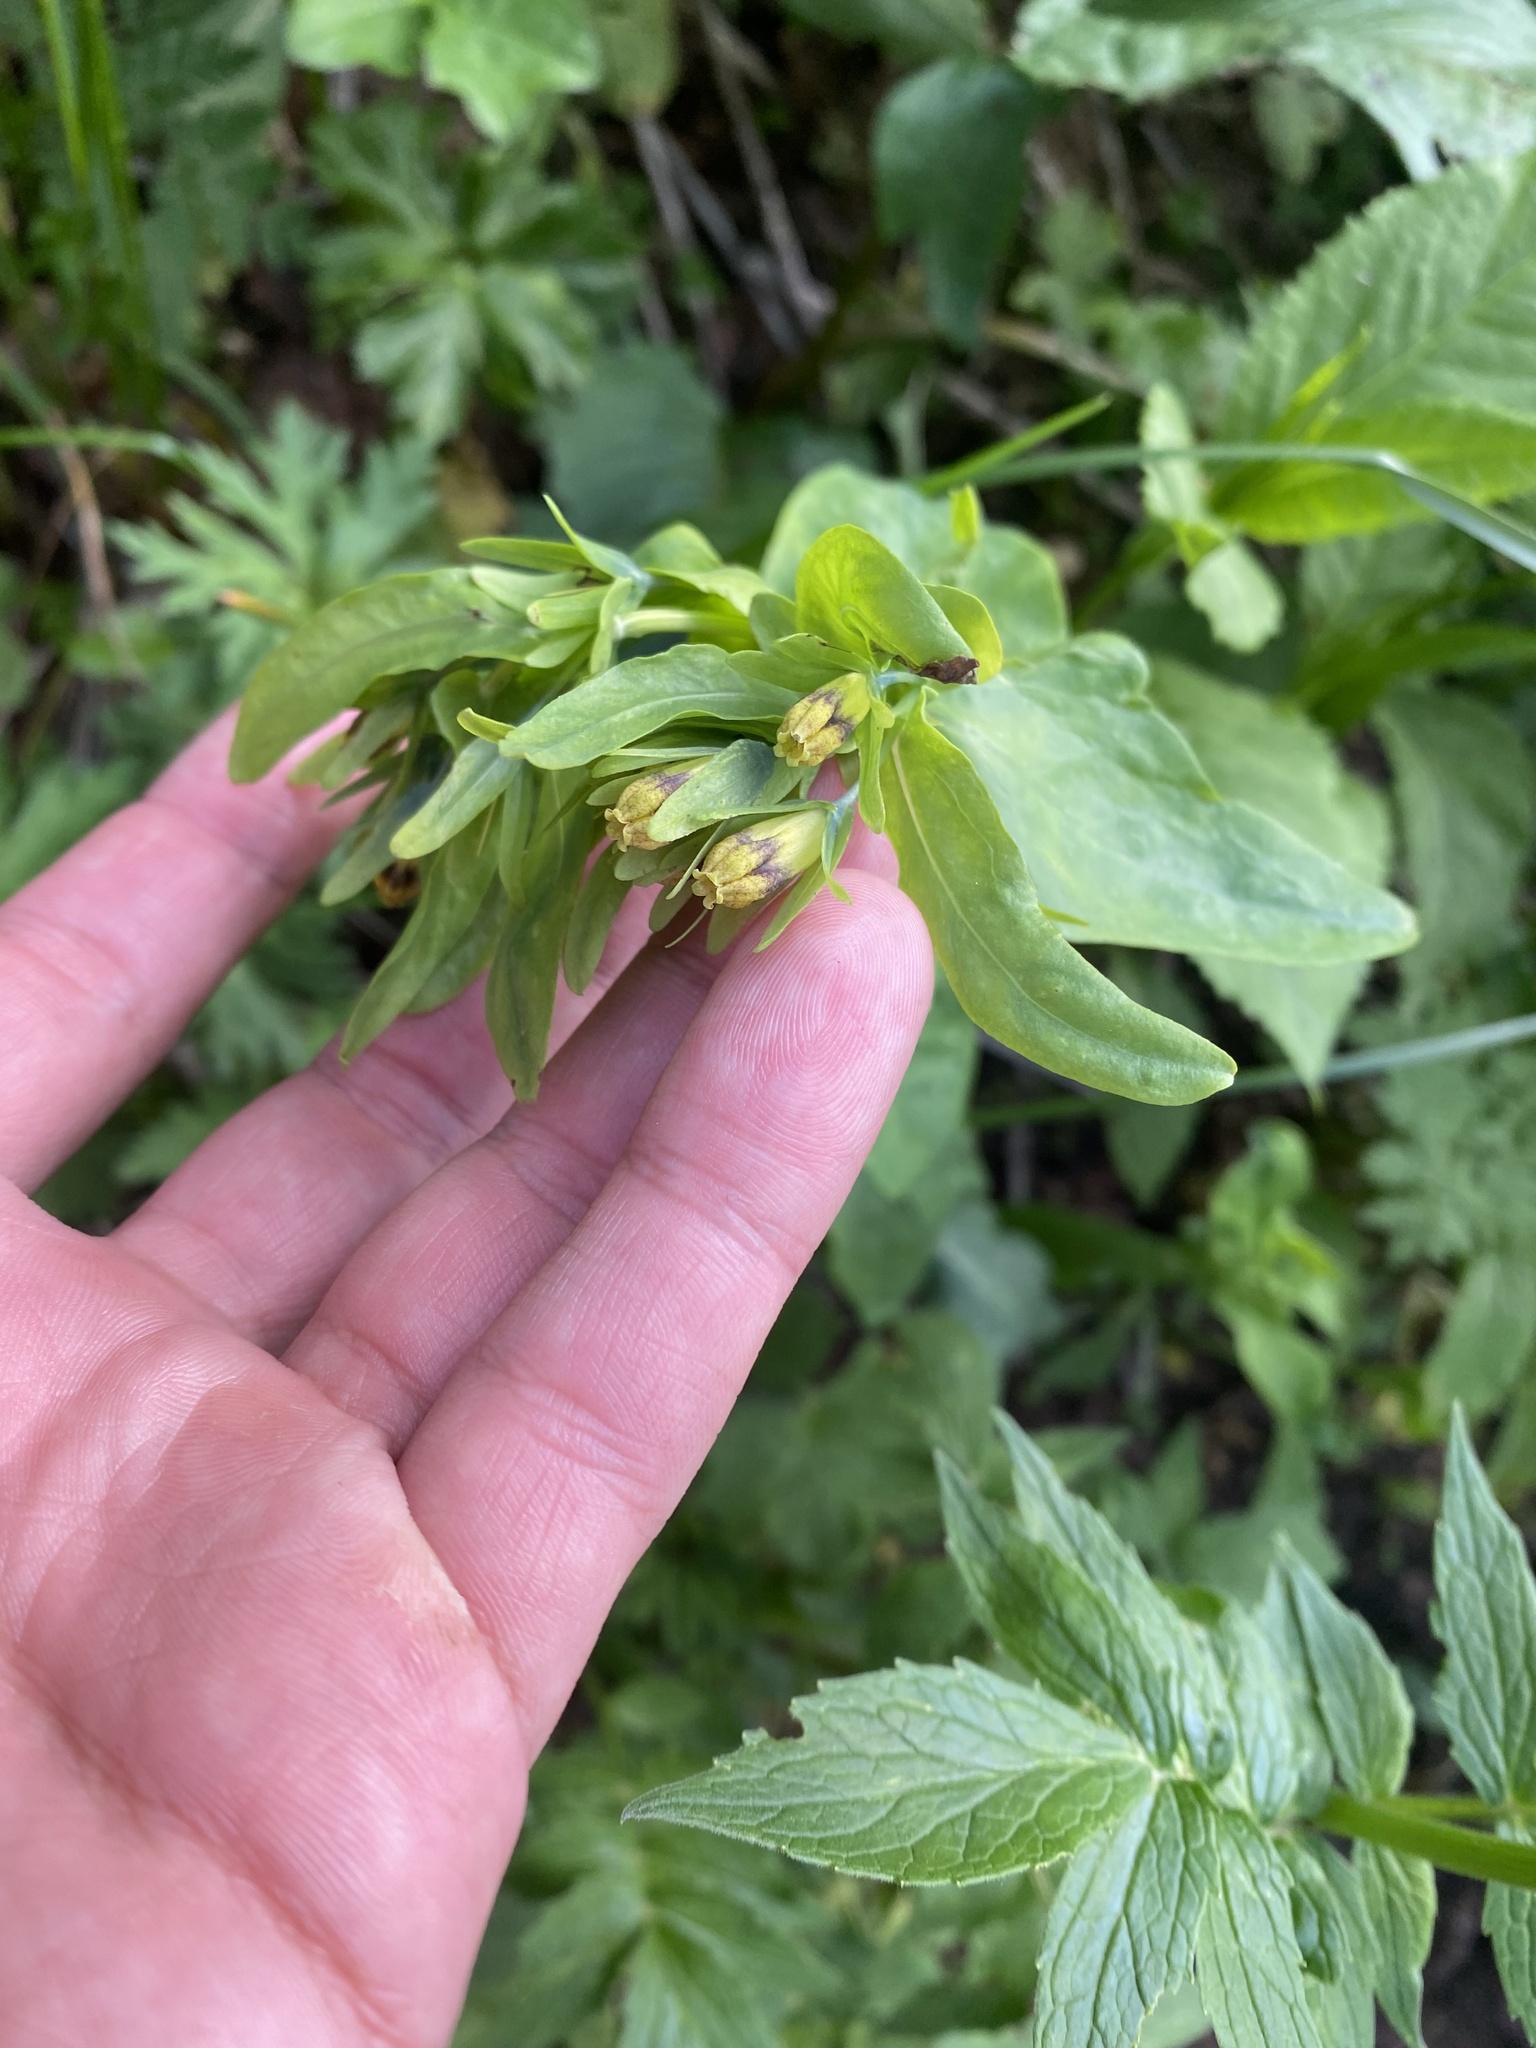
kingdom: Plantae
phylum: Tracheophyta
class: Magnoliopsida
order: Boraginales
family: Boraginaceae
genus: Cerinthe
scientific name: Cerinthe minor
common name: Lesser honeywort
